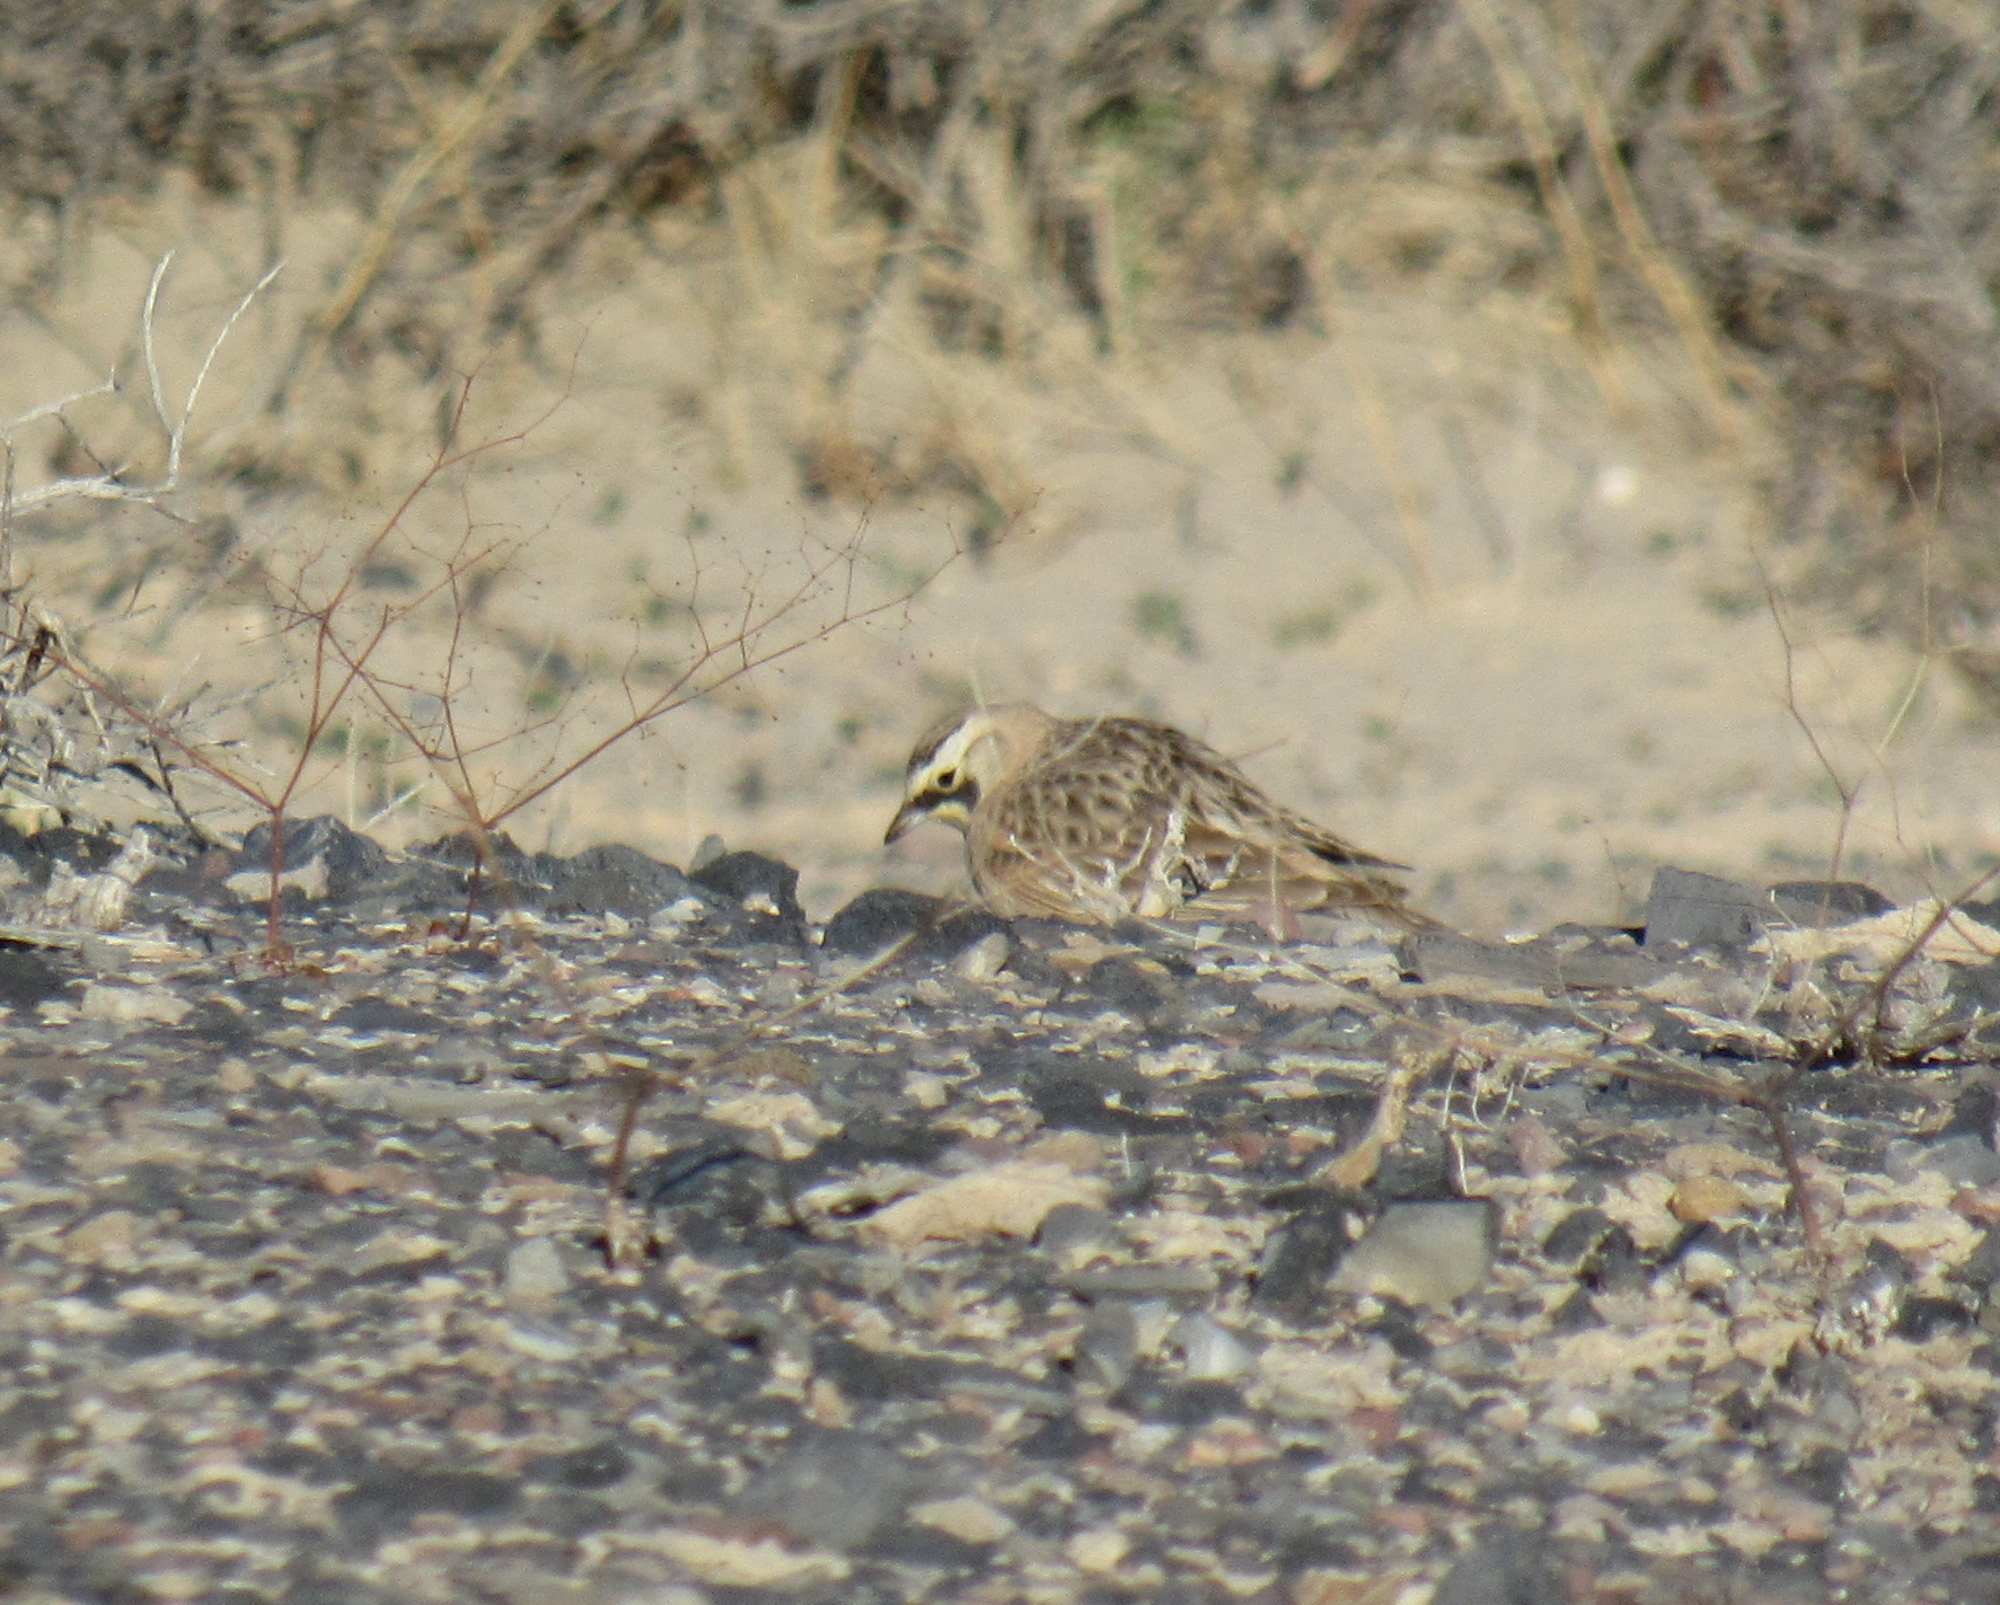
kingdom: Animalia
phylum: Chordata
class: Aves
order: Passeriformes
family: Alaudidae
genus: Eremophila
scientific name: Eremophila alpestris
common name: Horned lark
